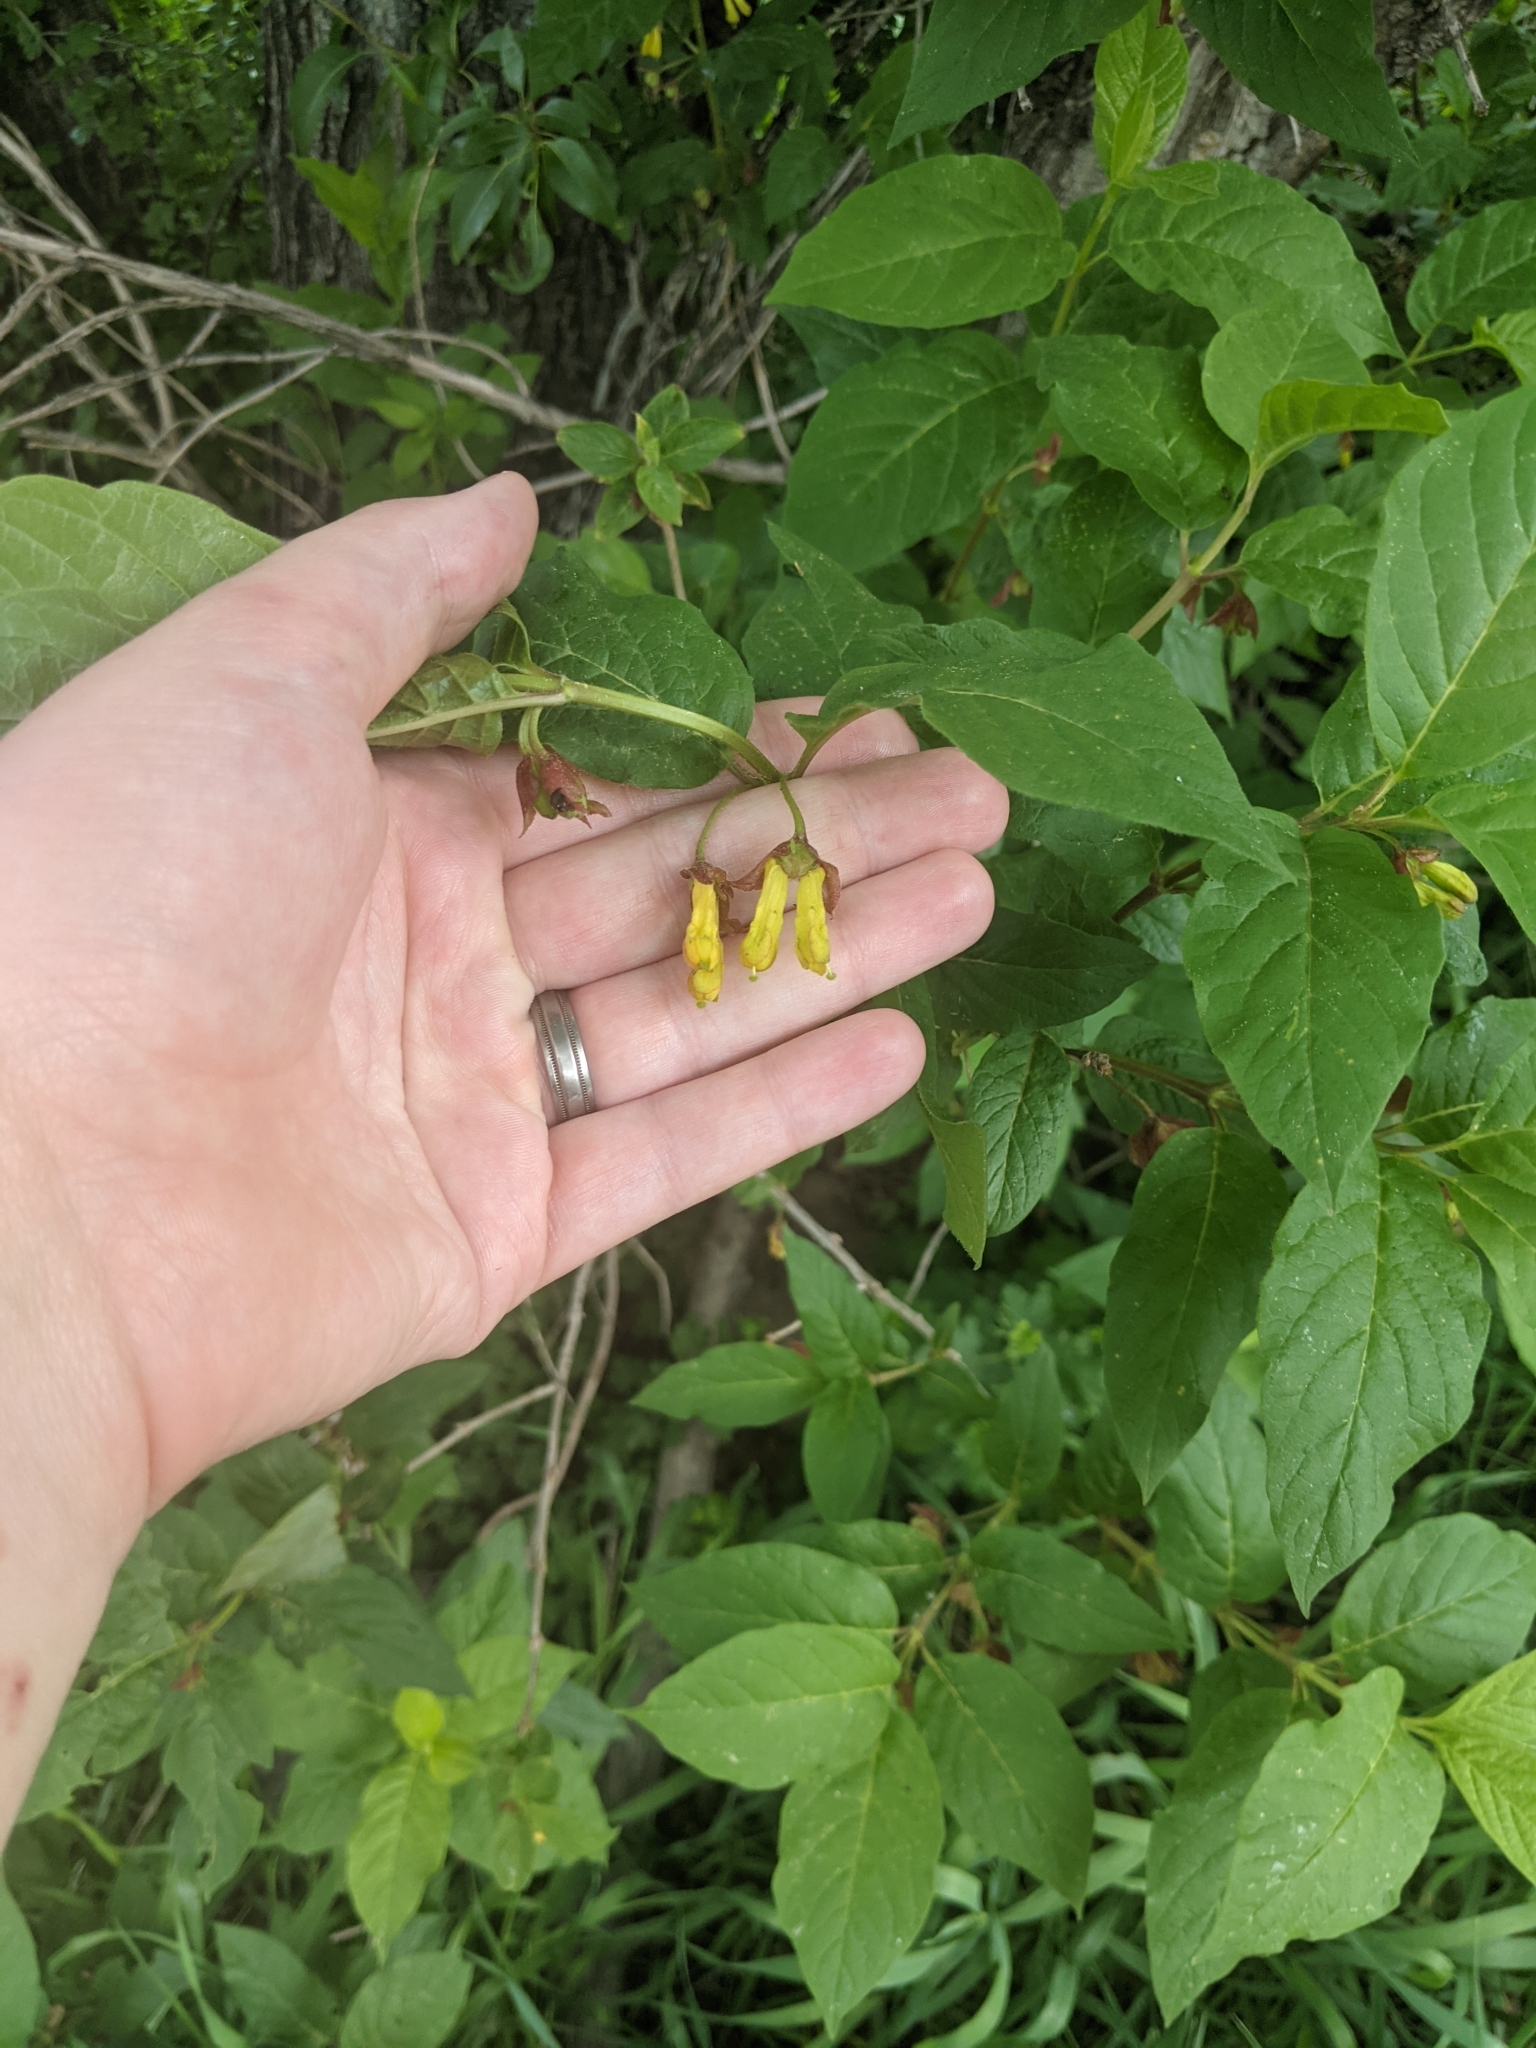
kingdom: Plantae
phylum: Tracheophyta
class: Magnoliopsida
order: Dipsacales
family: Caprifoliaceae
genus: Lonicera
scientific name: Lonicera involucrata
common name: Californian honeysuckle
